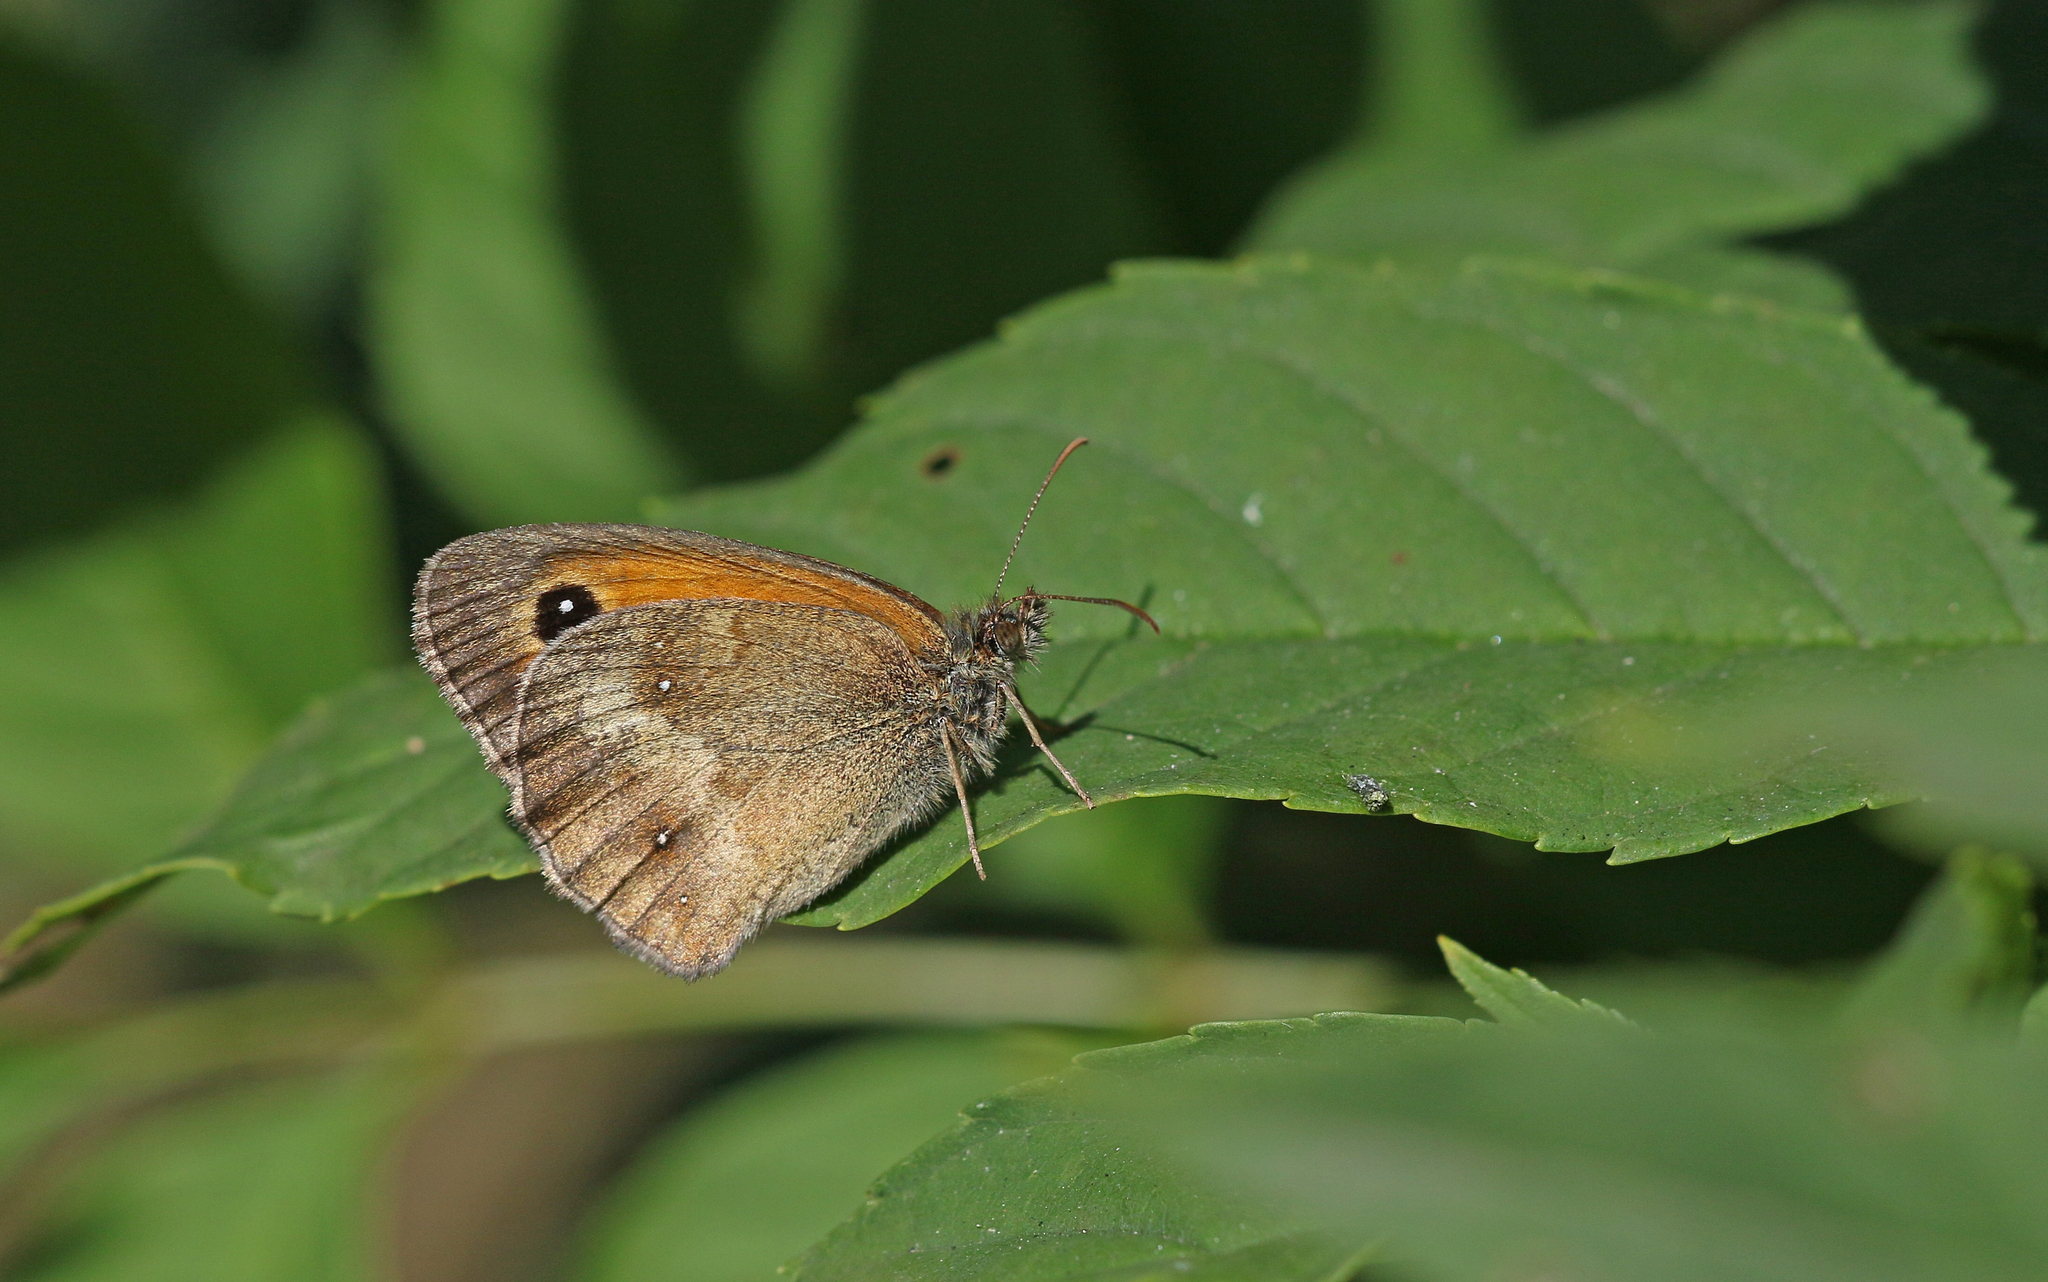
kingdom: Animalia
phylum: Arthropoda
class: Insecta
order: Lepidoptera
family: Nymphalidae
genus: Pyronia
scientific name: Pyronia tithonus
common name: Gatekeeper
